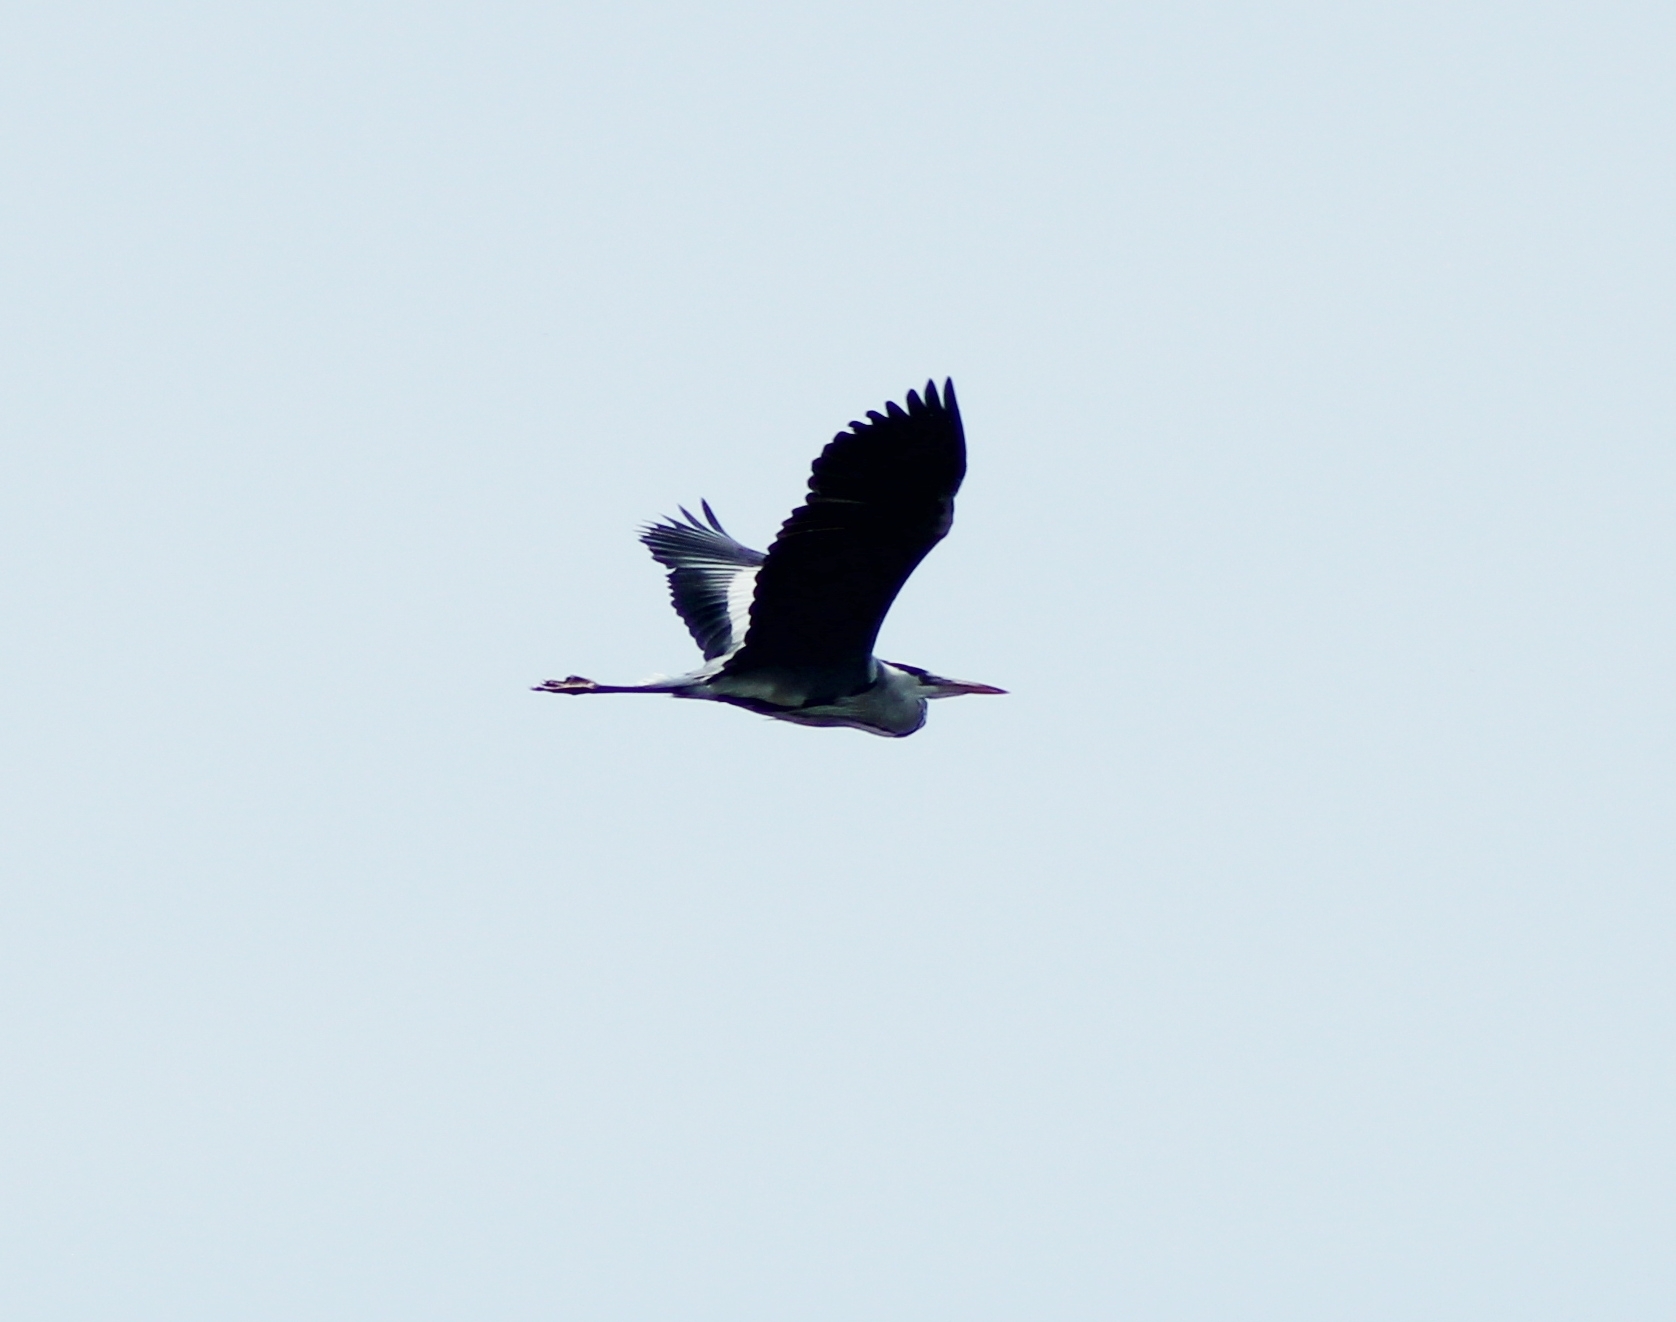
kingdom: Animalia
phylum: Chordata
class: Aves
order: Pelecaniformes
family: Ardeidae
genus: Ardea
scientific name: Ardea cinerea
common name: Grey heron
